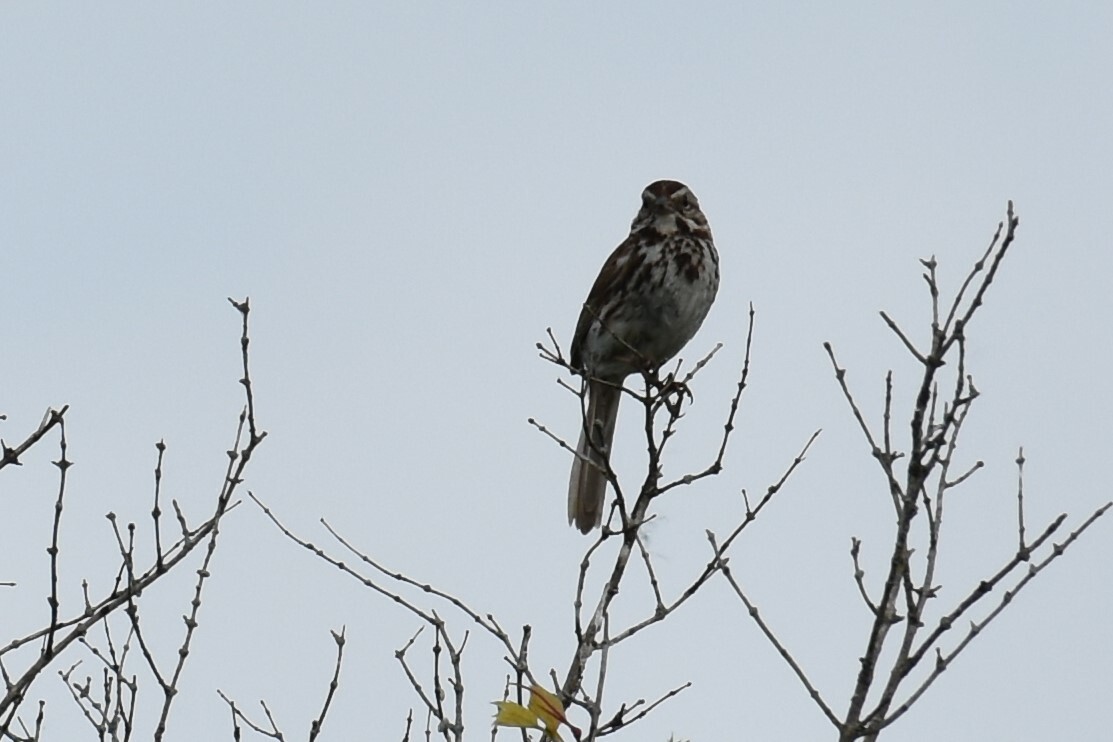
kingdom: Animalia
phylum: Chordata
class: Aves
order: Passeriformes
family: Passerellidae
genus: Melospiza
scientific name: Melospiza melodia
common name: Song sparrow
